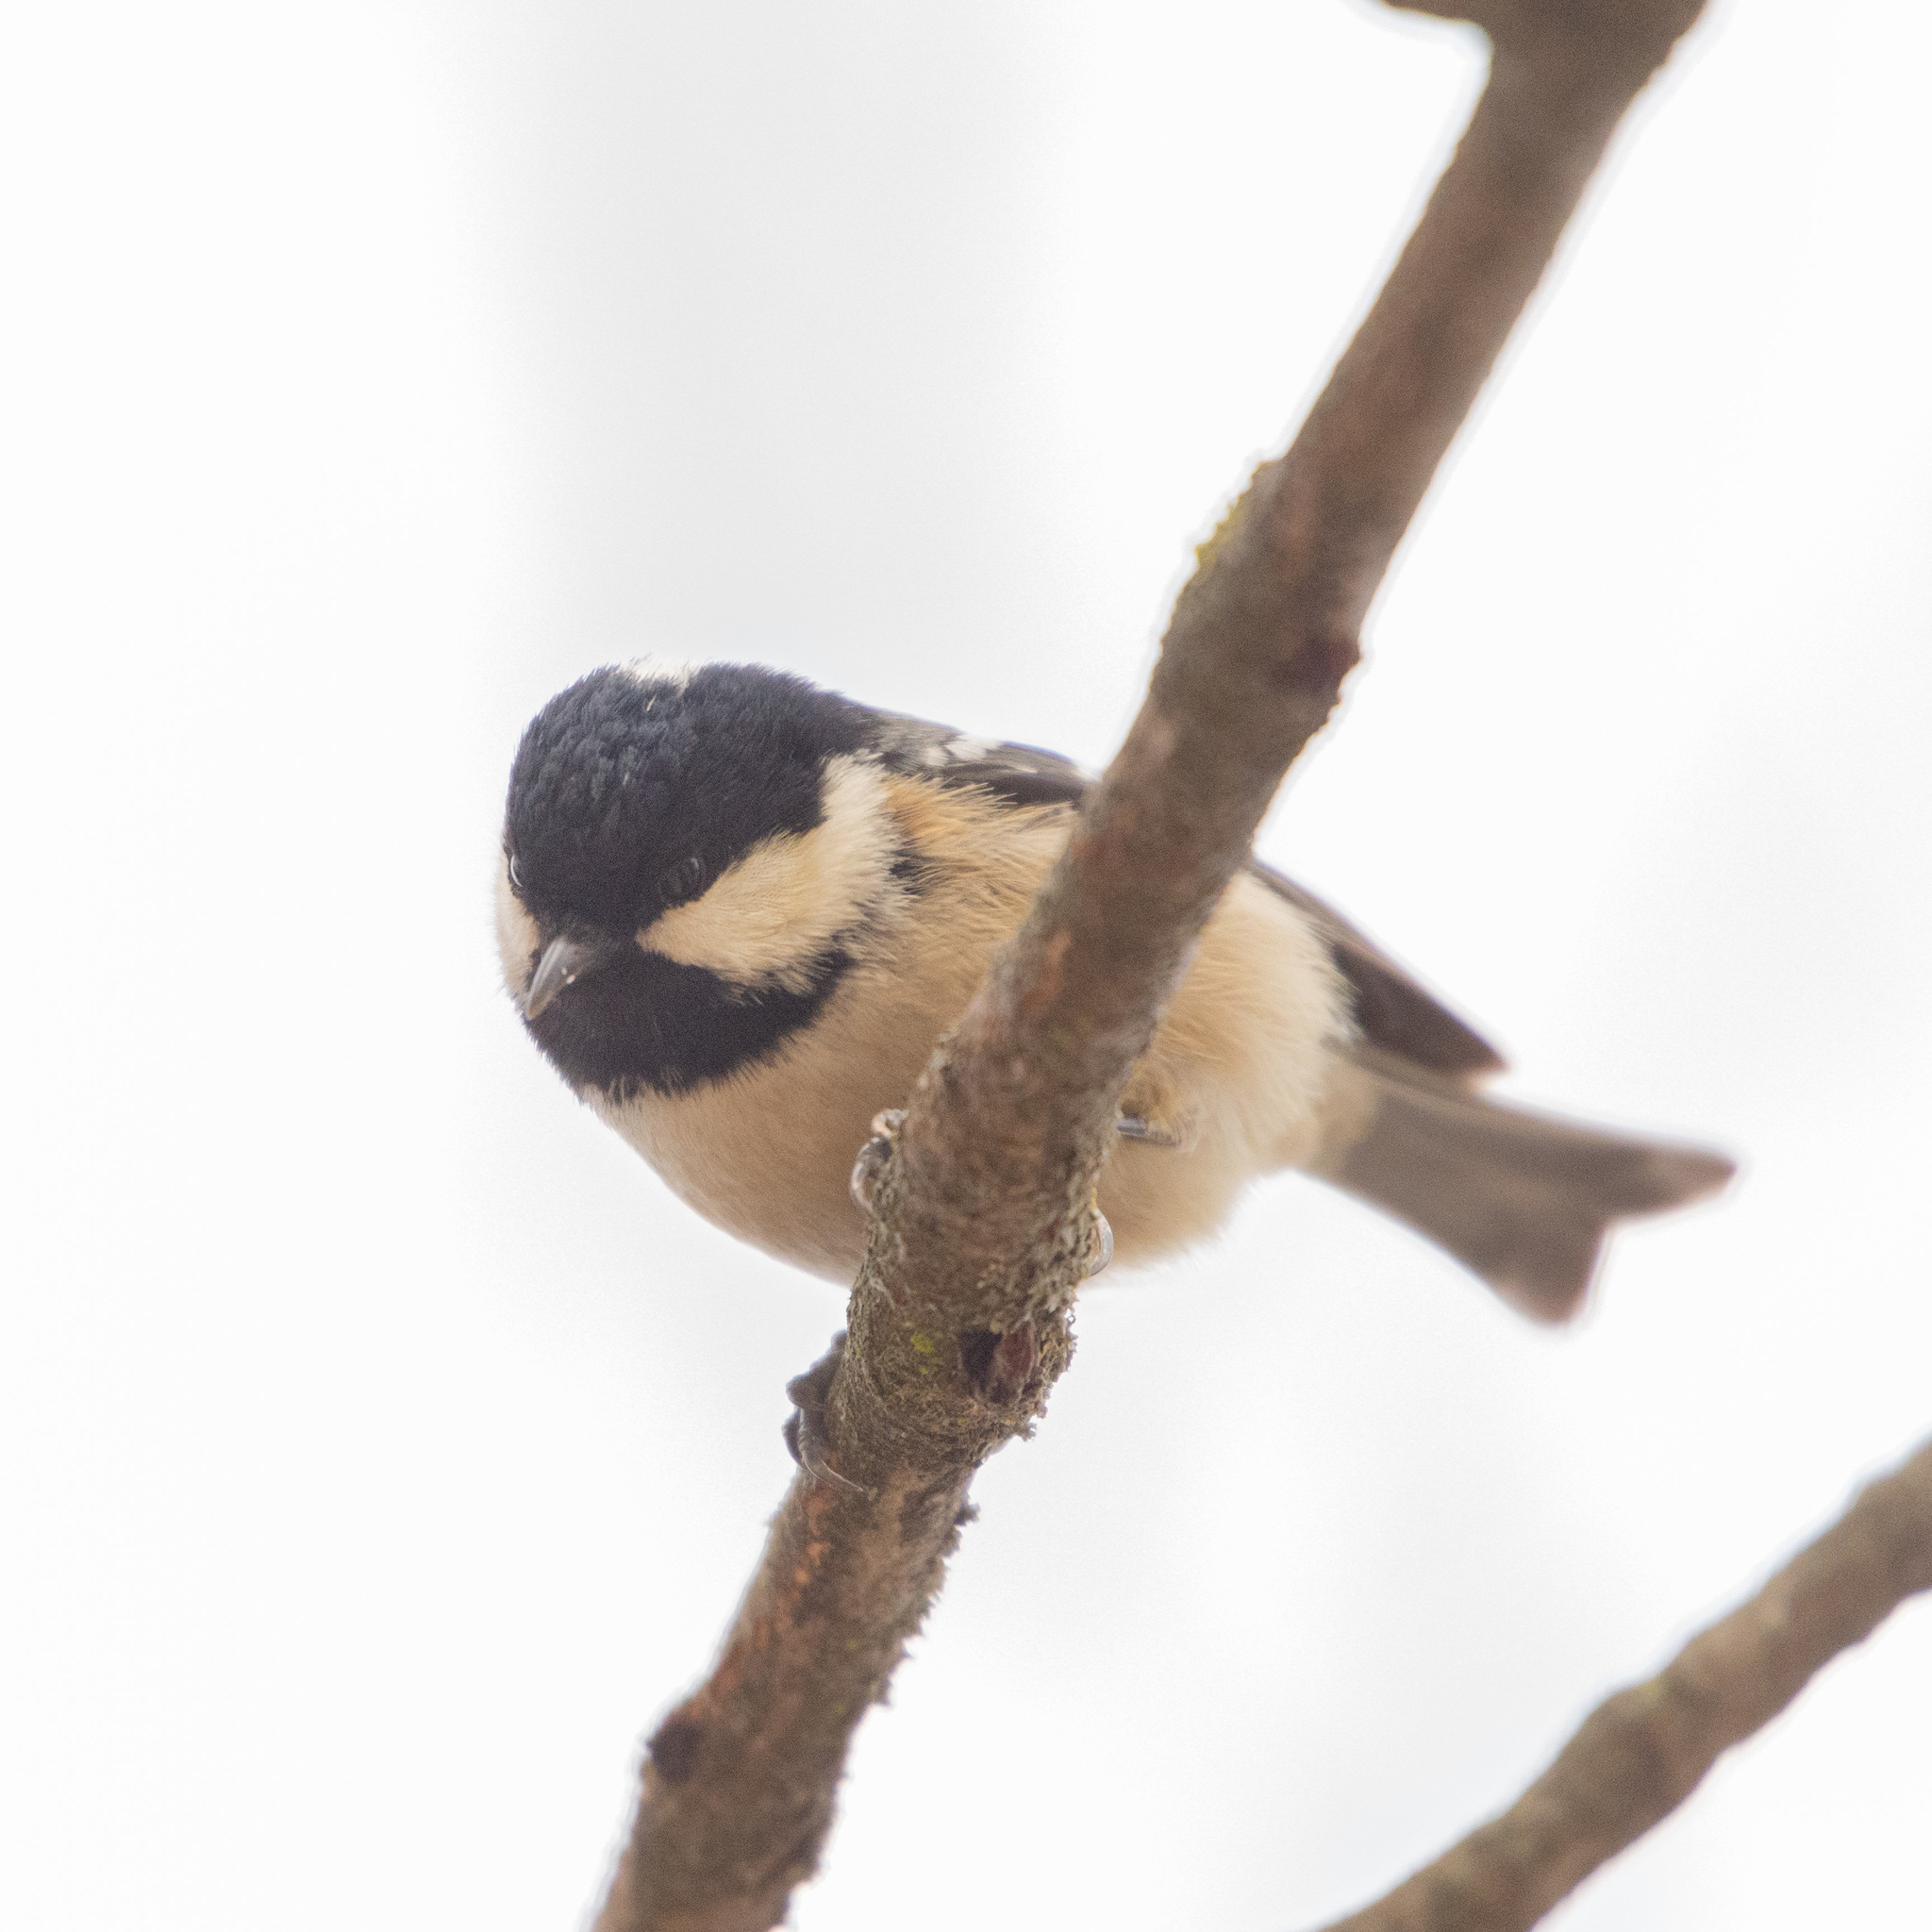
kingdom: Animalia
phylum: Chordata
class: Aves
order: Passeriformes
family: Paridae
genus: Periparus
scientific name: Periparus ater
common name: Coal tit
